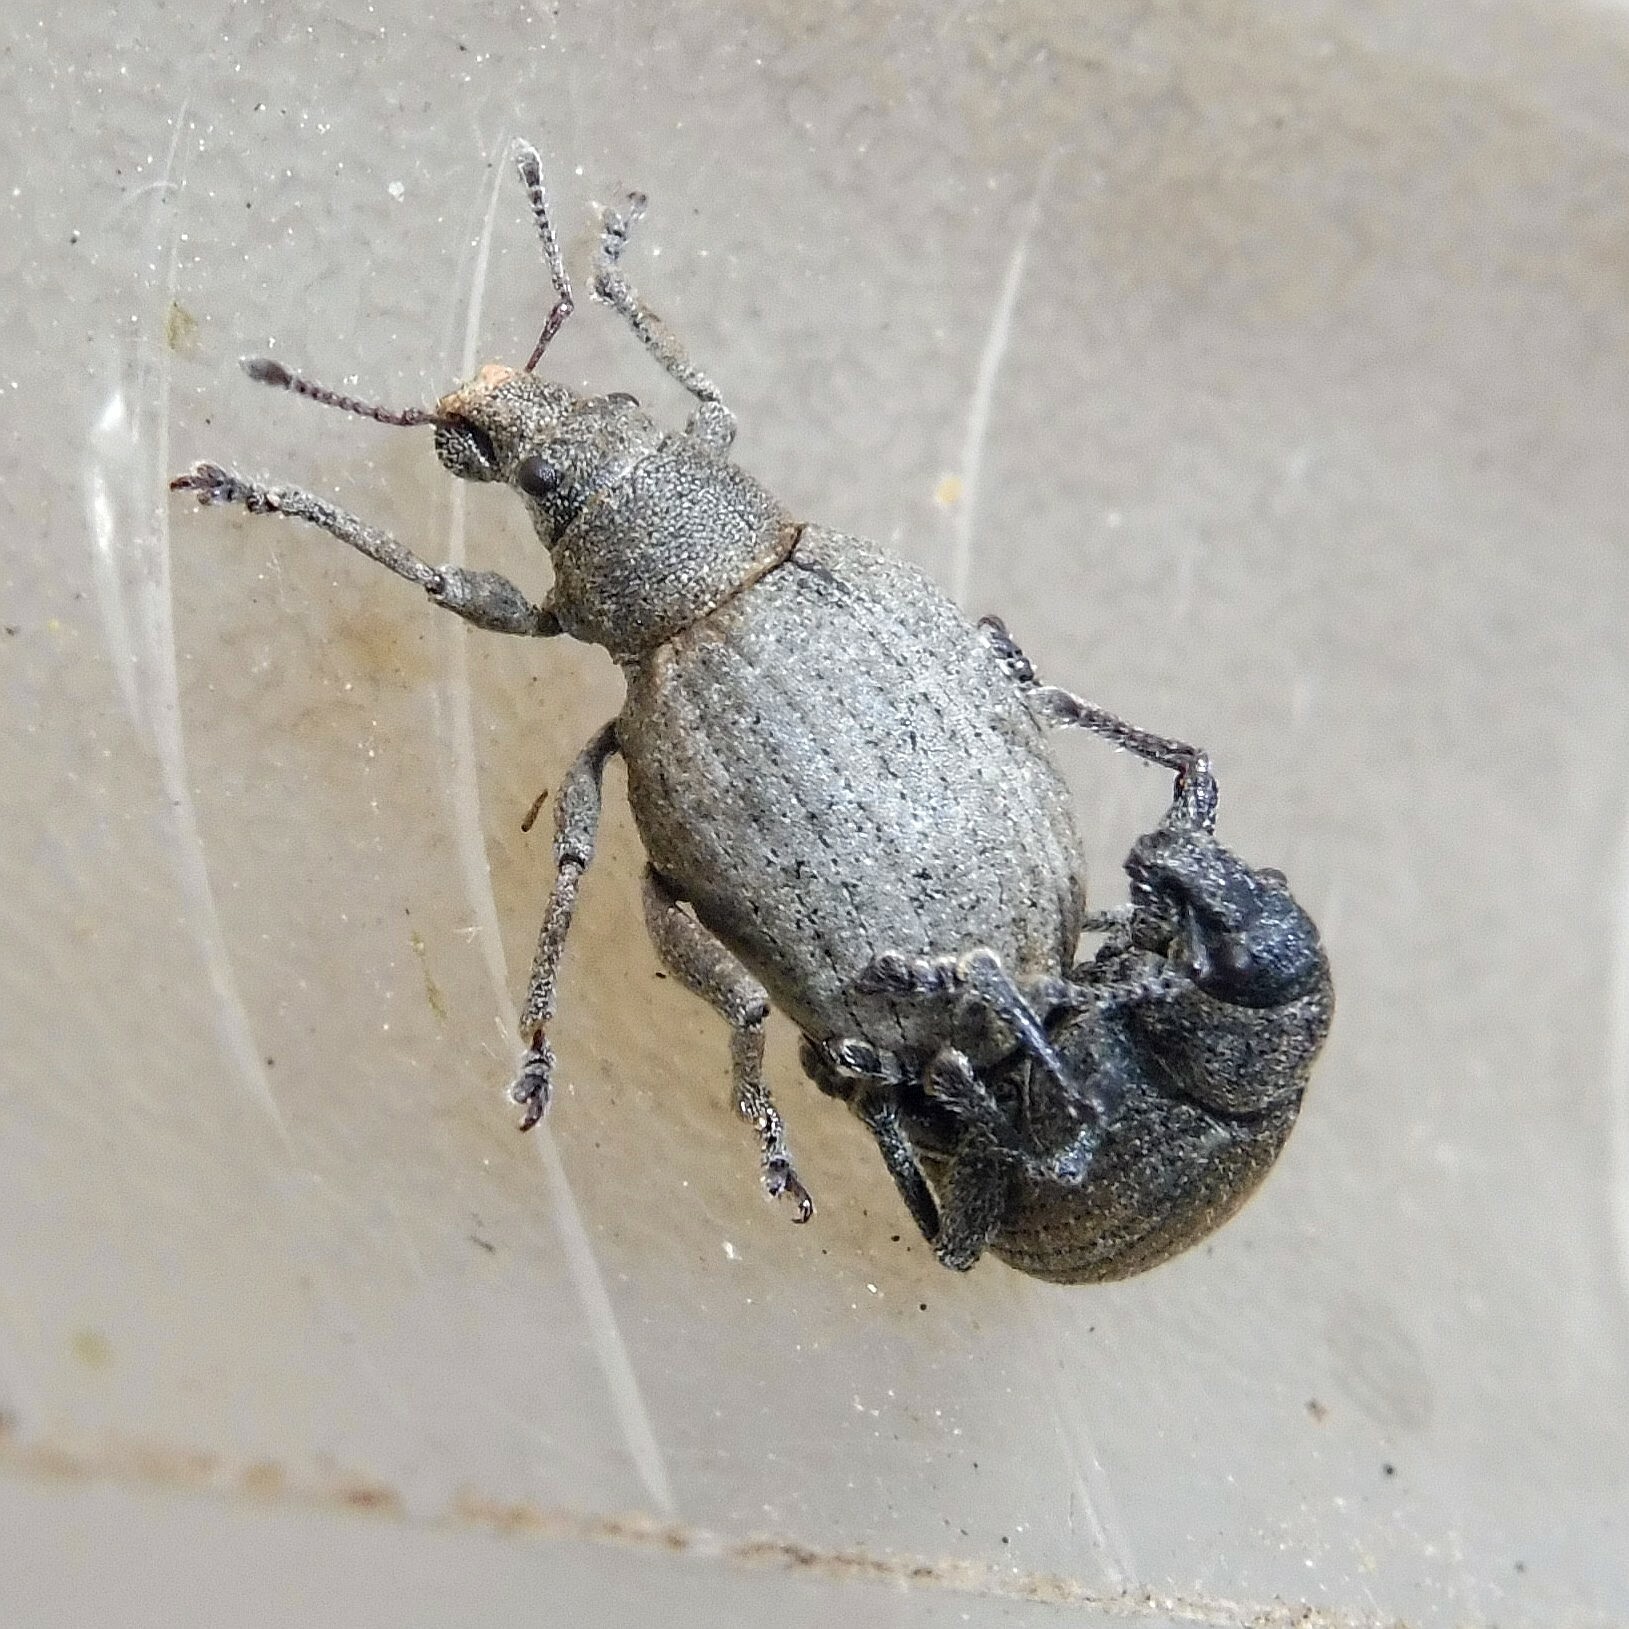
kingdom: Animalia
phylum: Arthropoda
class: Insecta
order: Coleoptera
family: Curculionidae
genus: Attactagenus
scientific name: Attactagenus plumbeus
